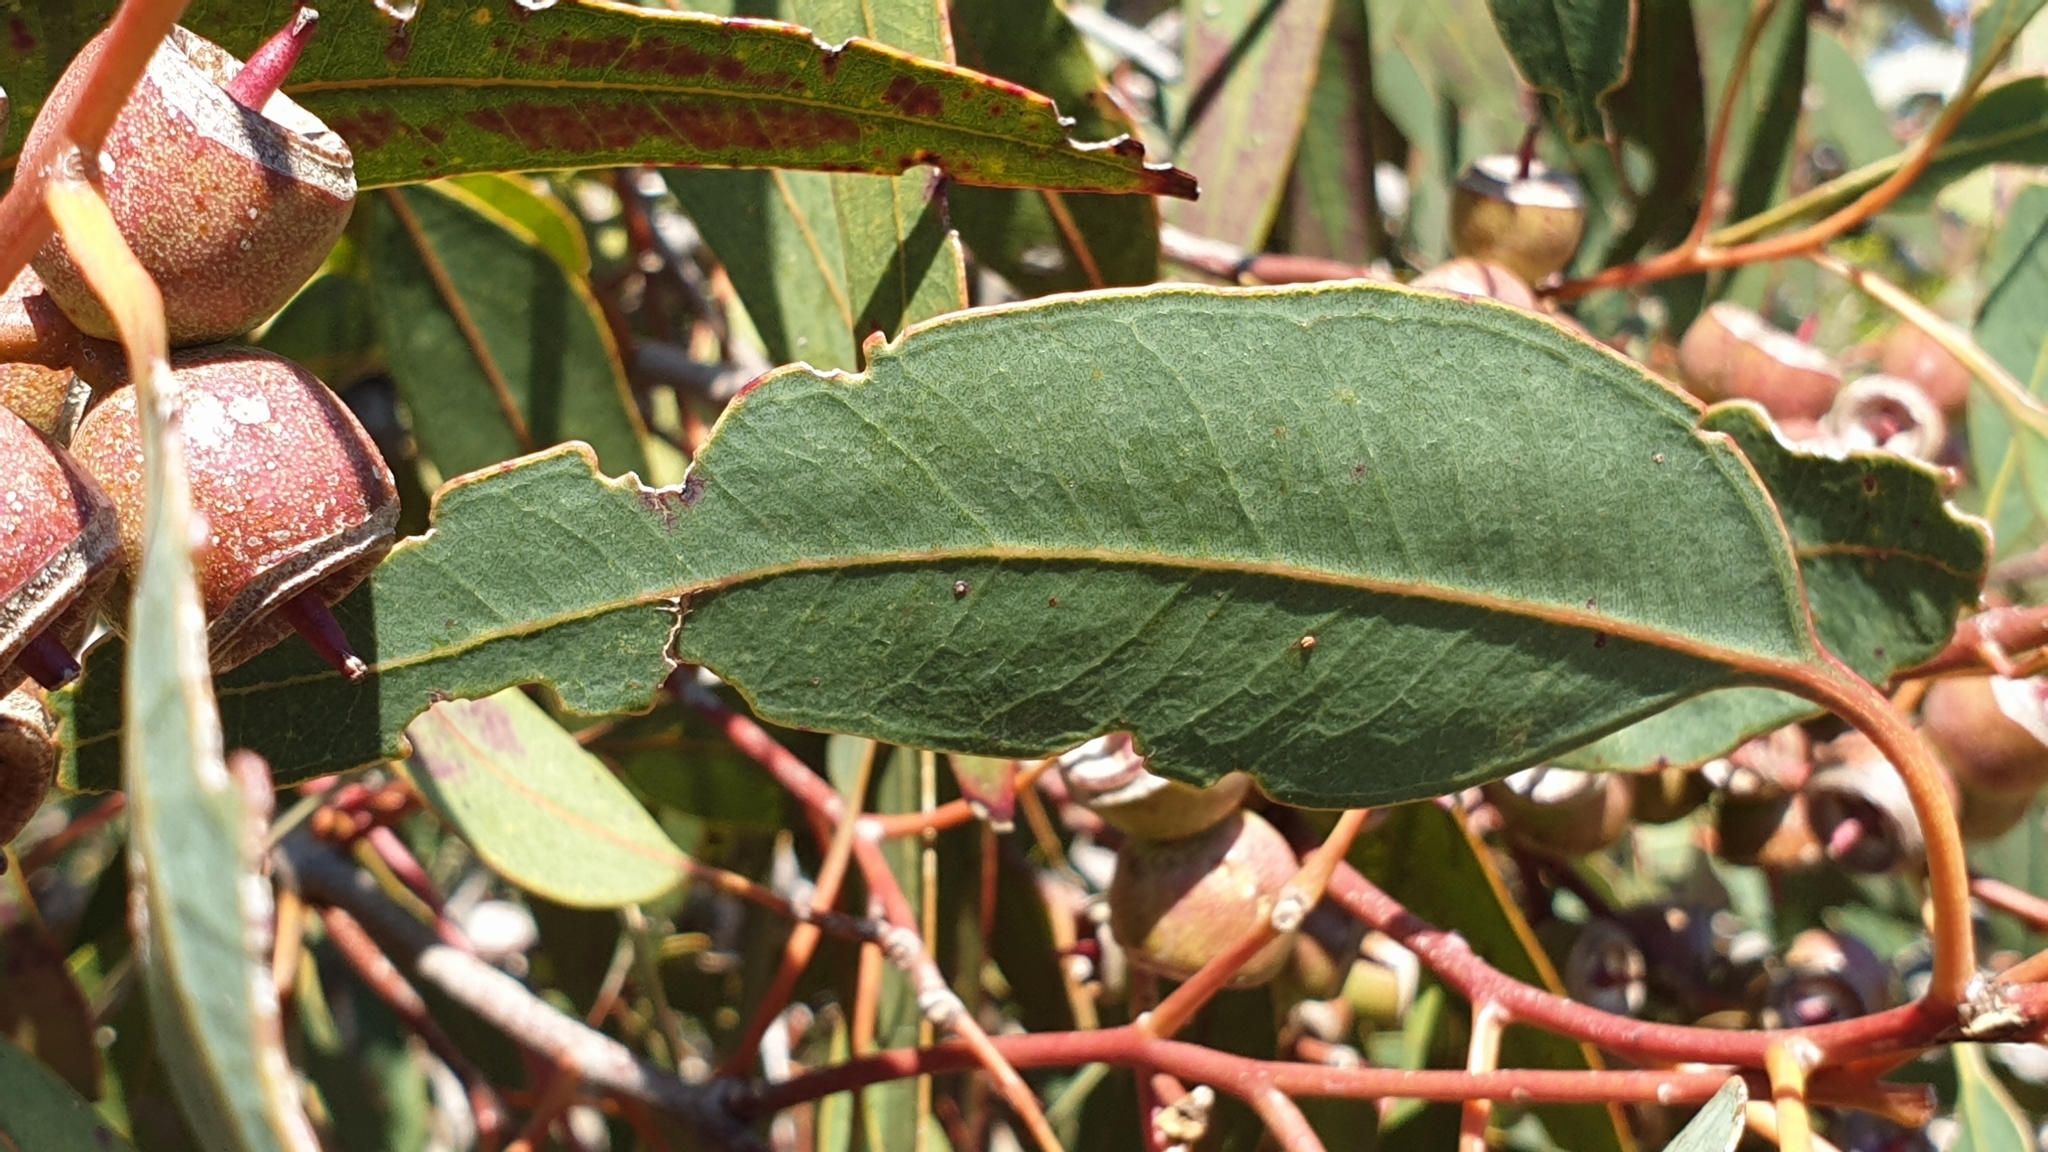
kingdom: Plantae
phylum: Tracheophyta
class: Magnoliopsida
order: Myrtales
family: Myrtaceae
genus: Eucalyptus
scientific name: Eucalyptus cosmophylla
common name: Bog-gum
